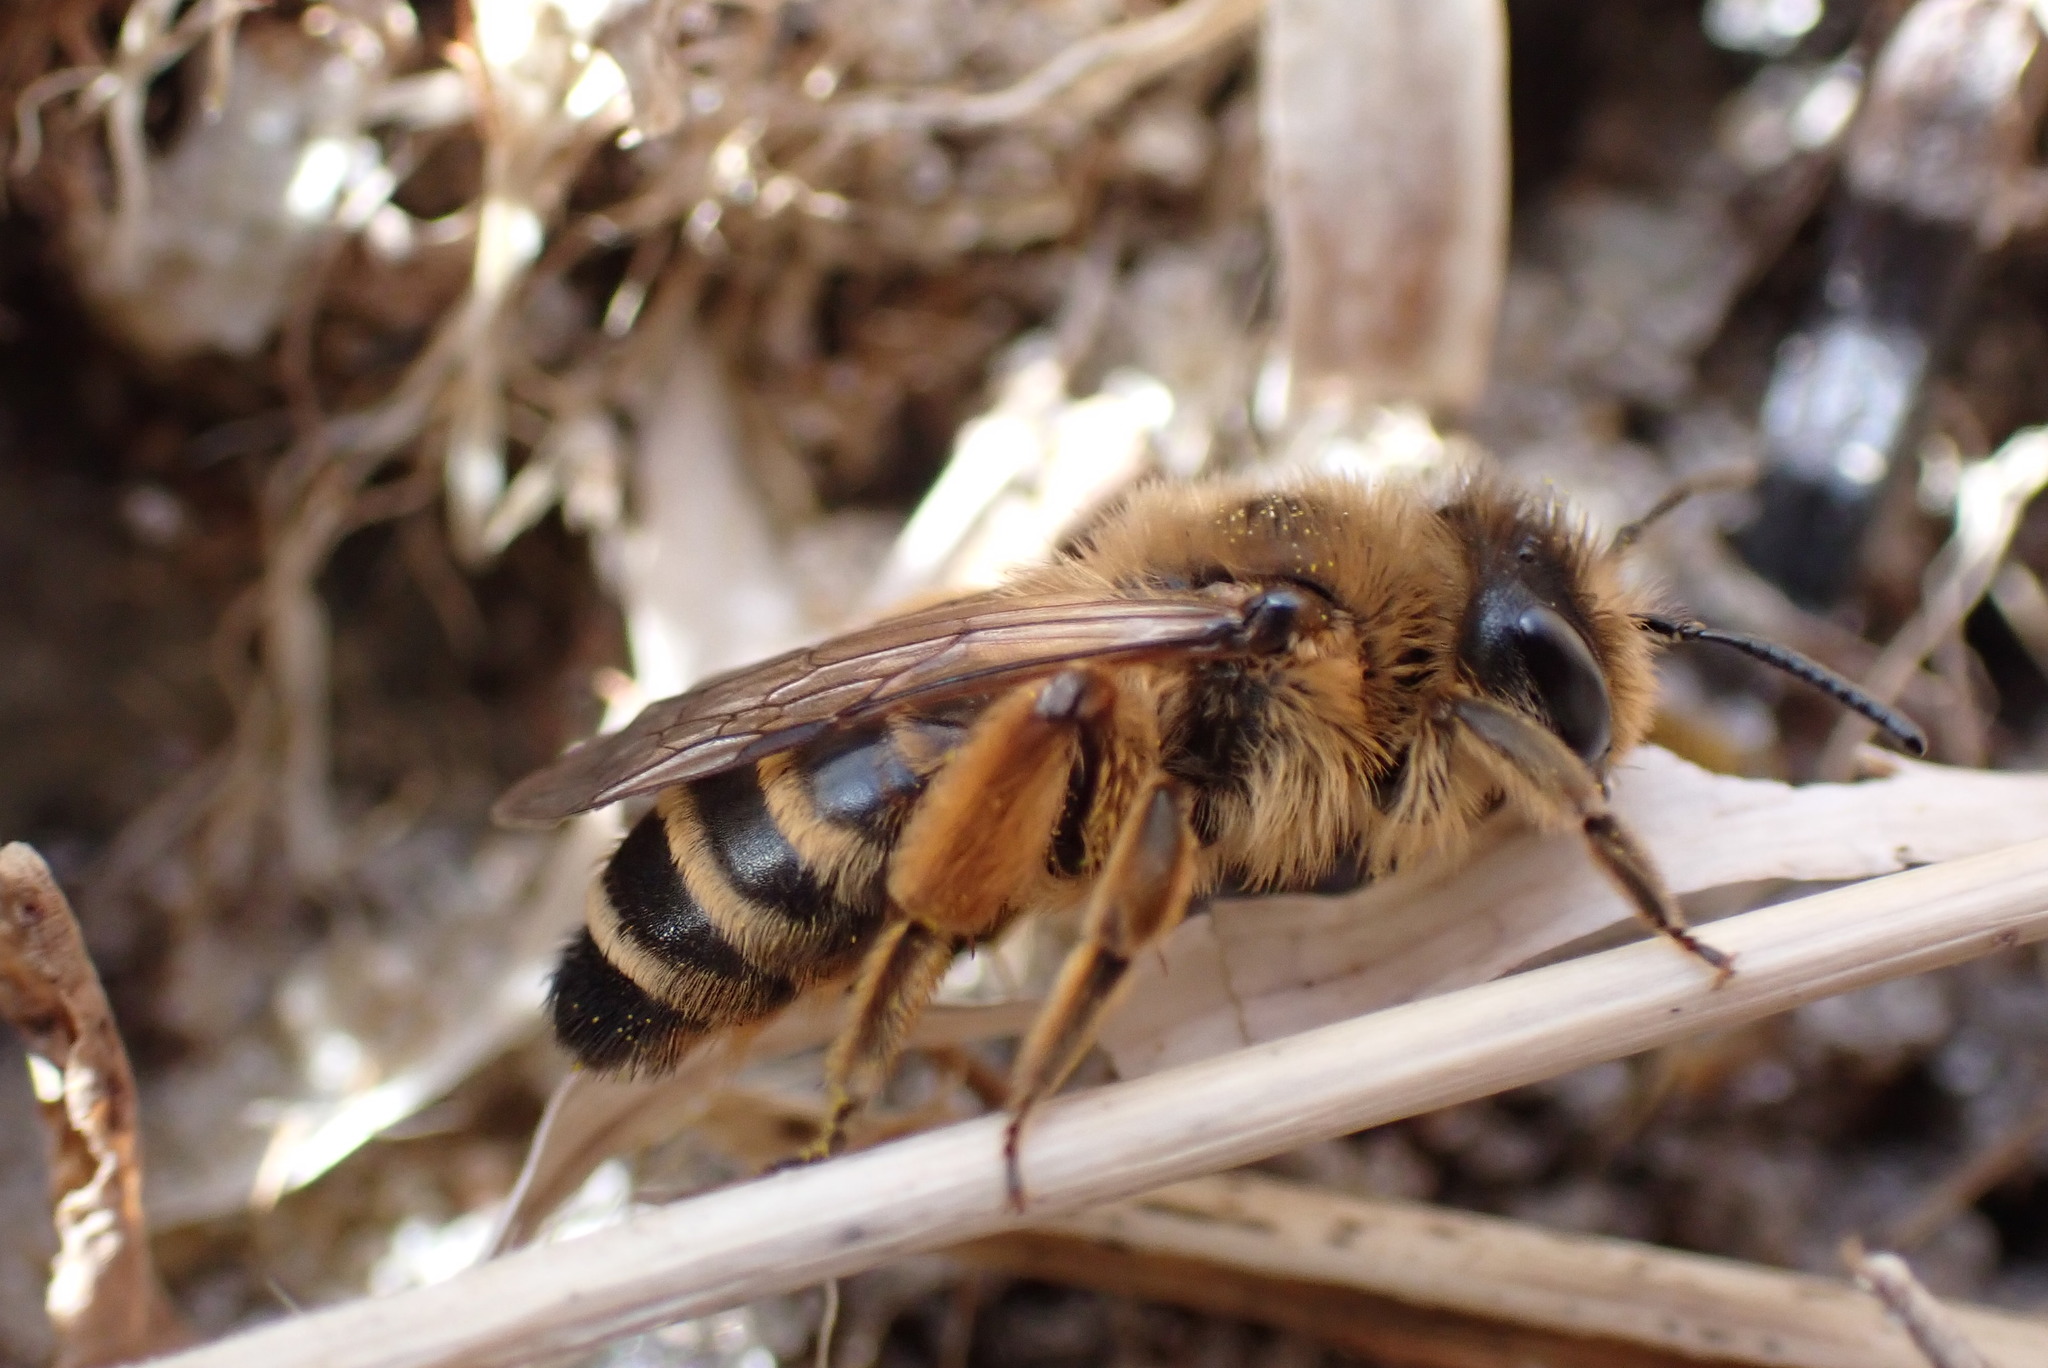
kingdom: Animalia
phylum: Arthropoda
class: Insecta
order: Hymenoptera
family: Andrenidae
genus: Andrena
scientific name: Andrena flavipes
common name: Yellow-legged mining bee
